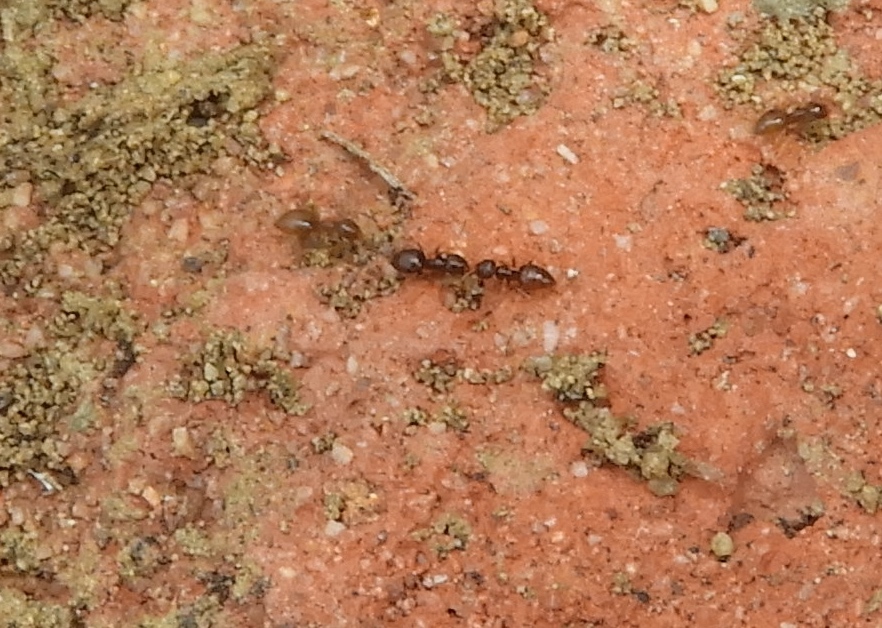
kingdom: Animalia
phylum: Arthropoda
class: Insecta
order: Hymenoptera
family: Formicidae
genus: Brachymyrmex
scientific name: Brachymyrmex
